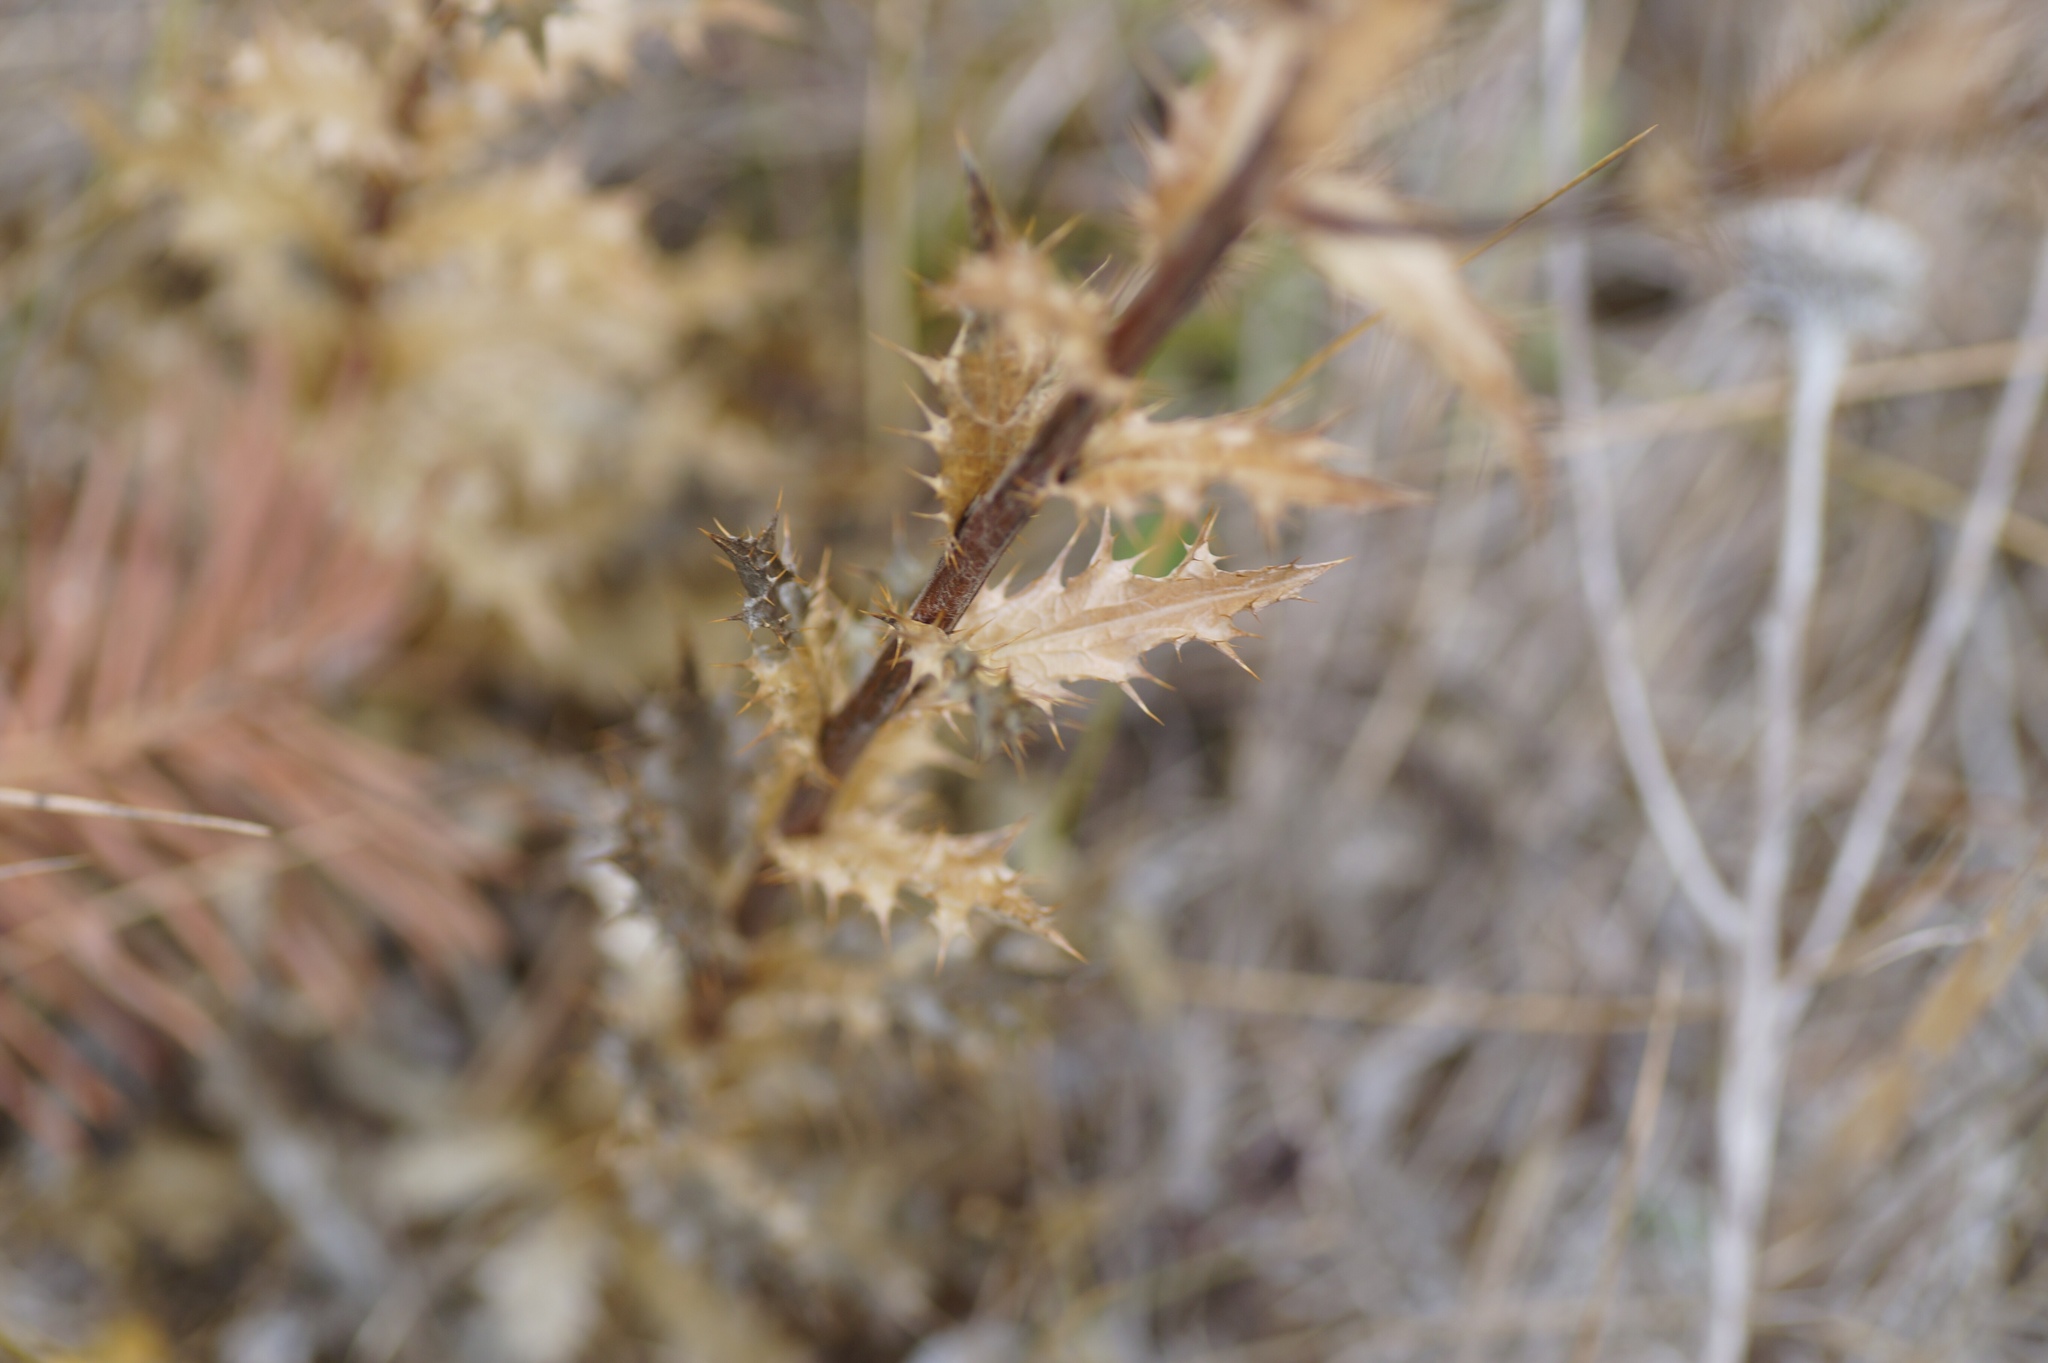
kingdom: Plantae
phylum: Tracheophyta
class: Magnoliopsida
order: Asterales
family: Asteraceae
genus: Carlina
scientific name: Carlina vulgaris
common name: Carline thistle
